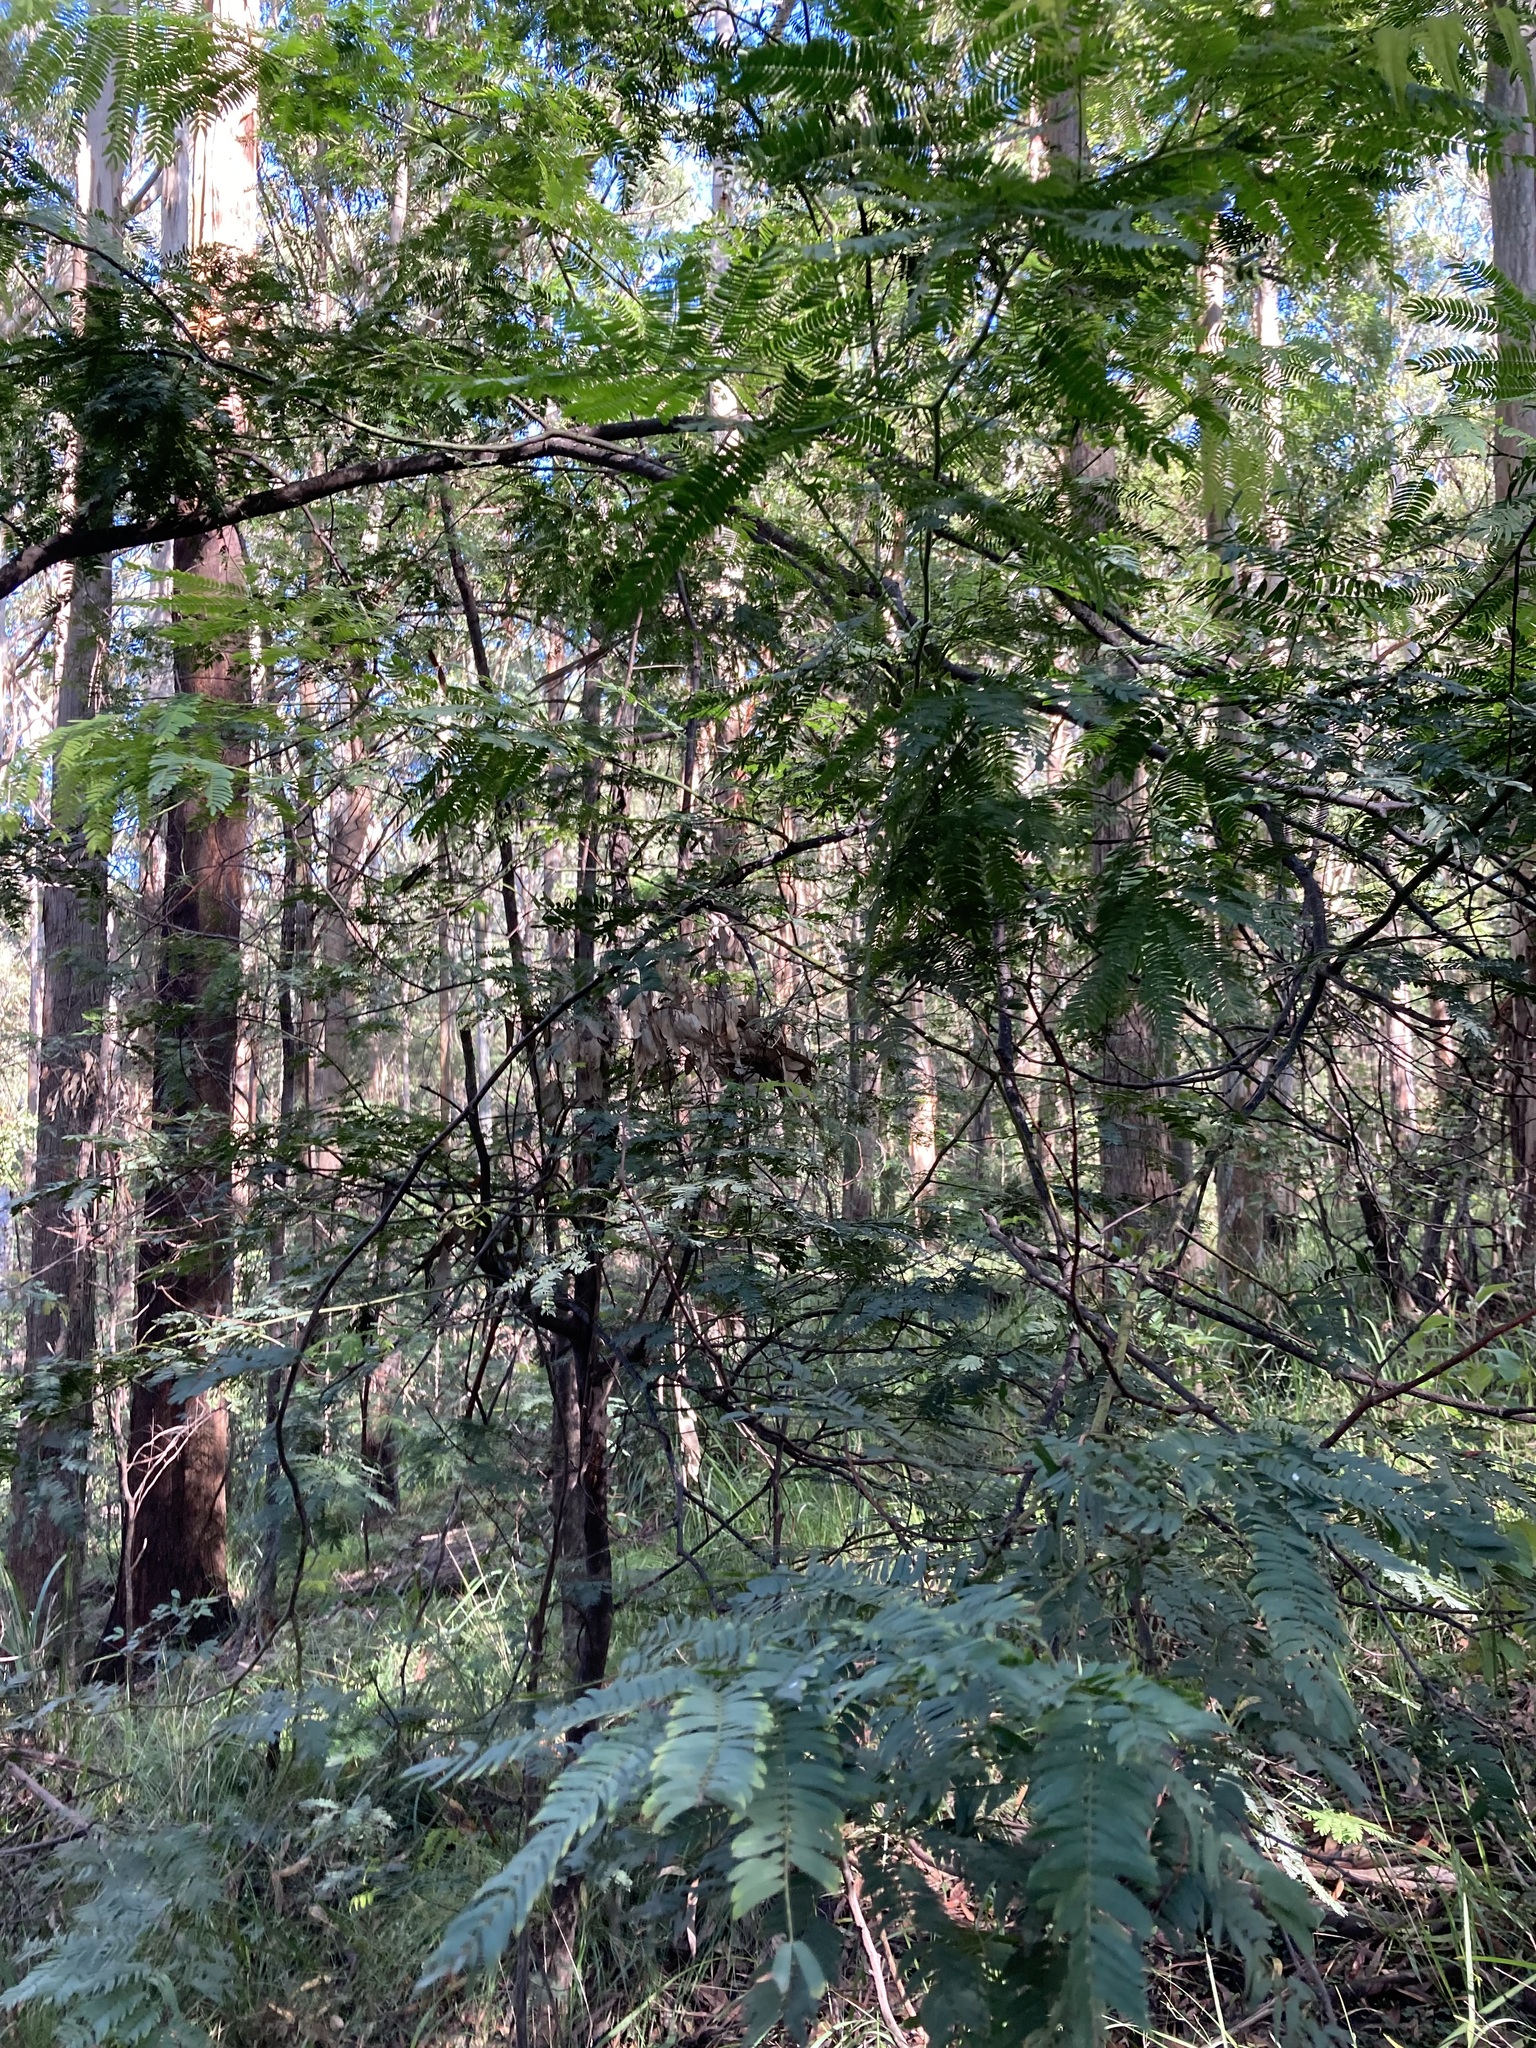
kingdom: Plantae
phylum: Tracheophyta
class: Magnoliopsida
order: Fabales
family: Fabaceae
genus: Acacia
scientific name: Acacia schinoides
